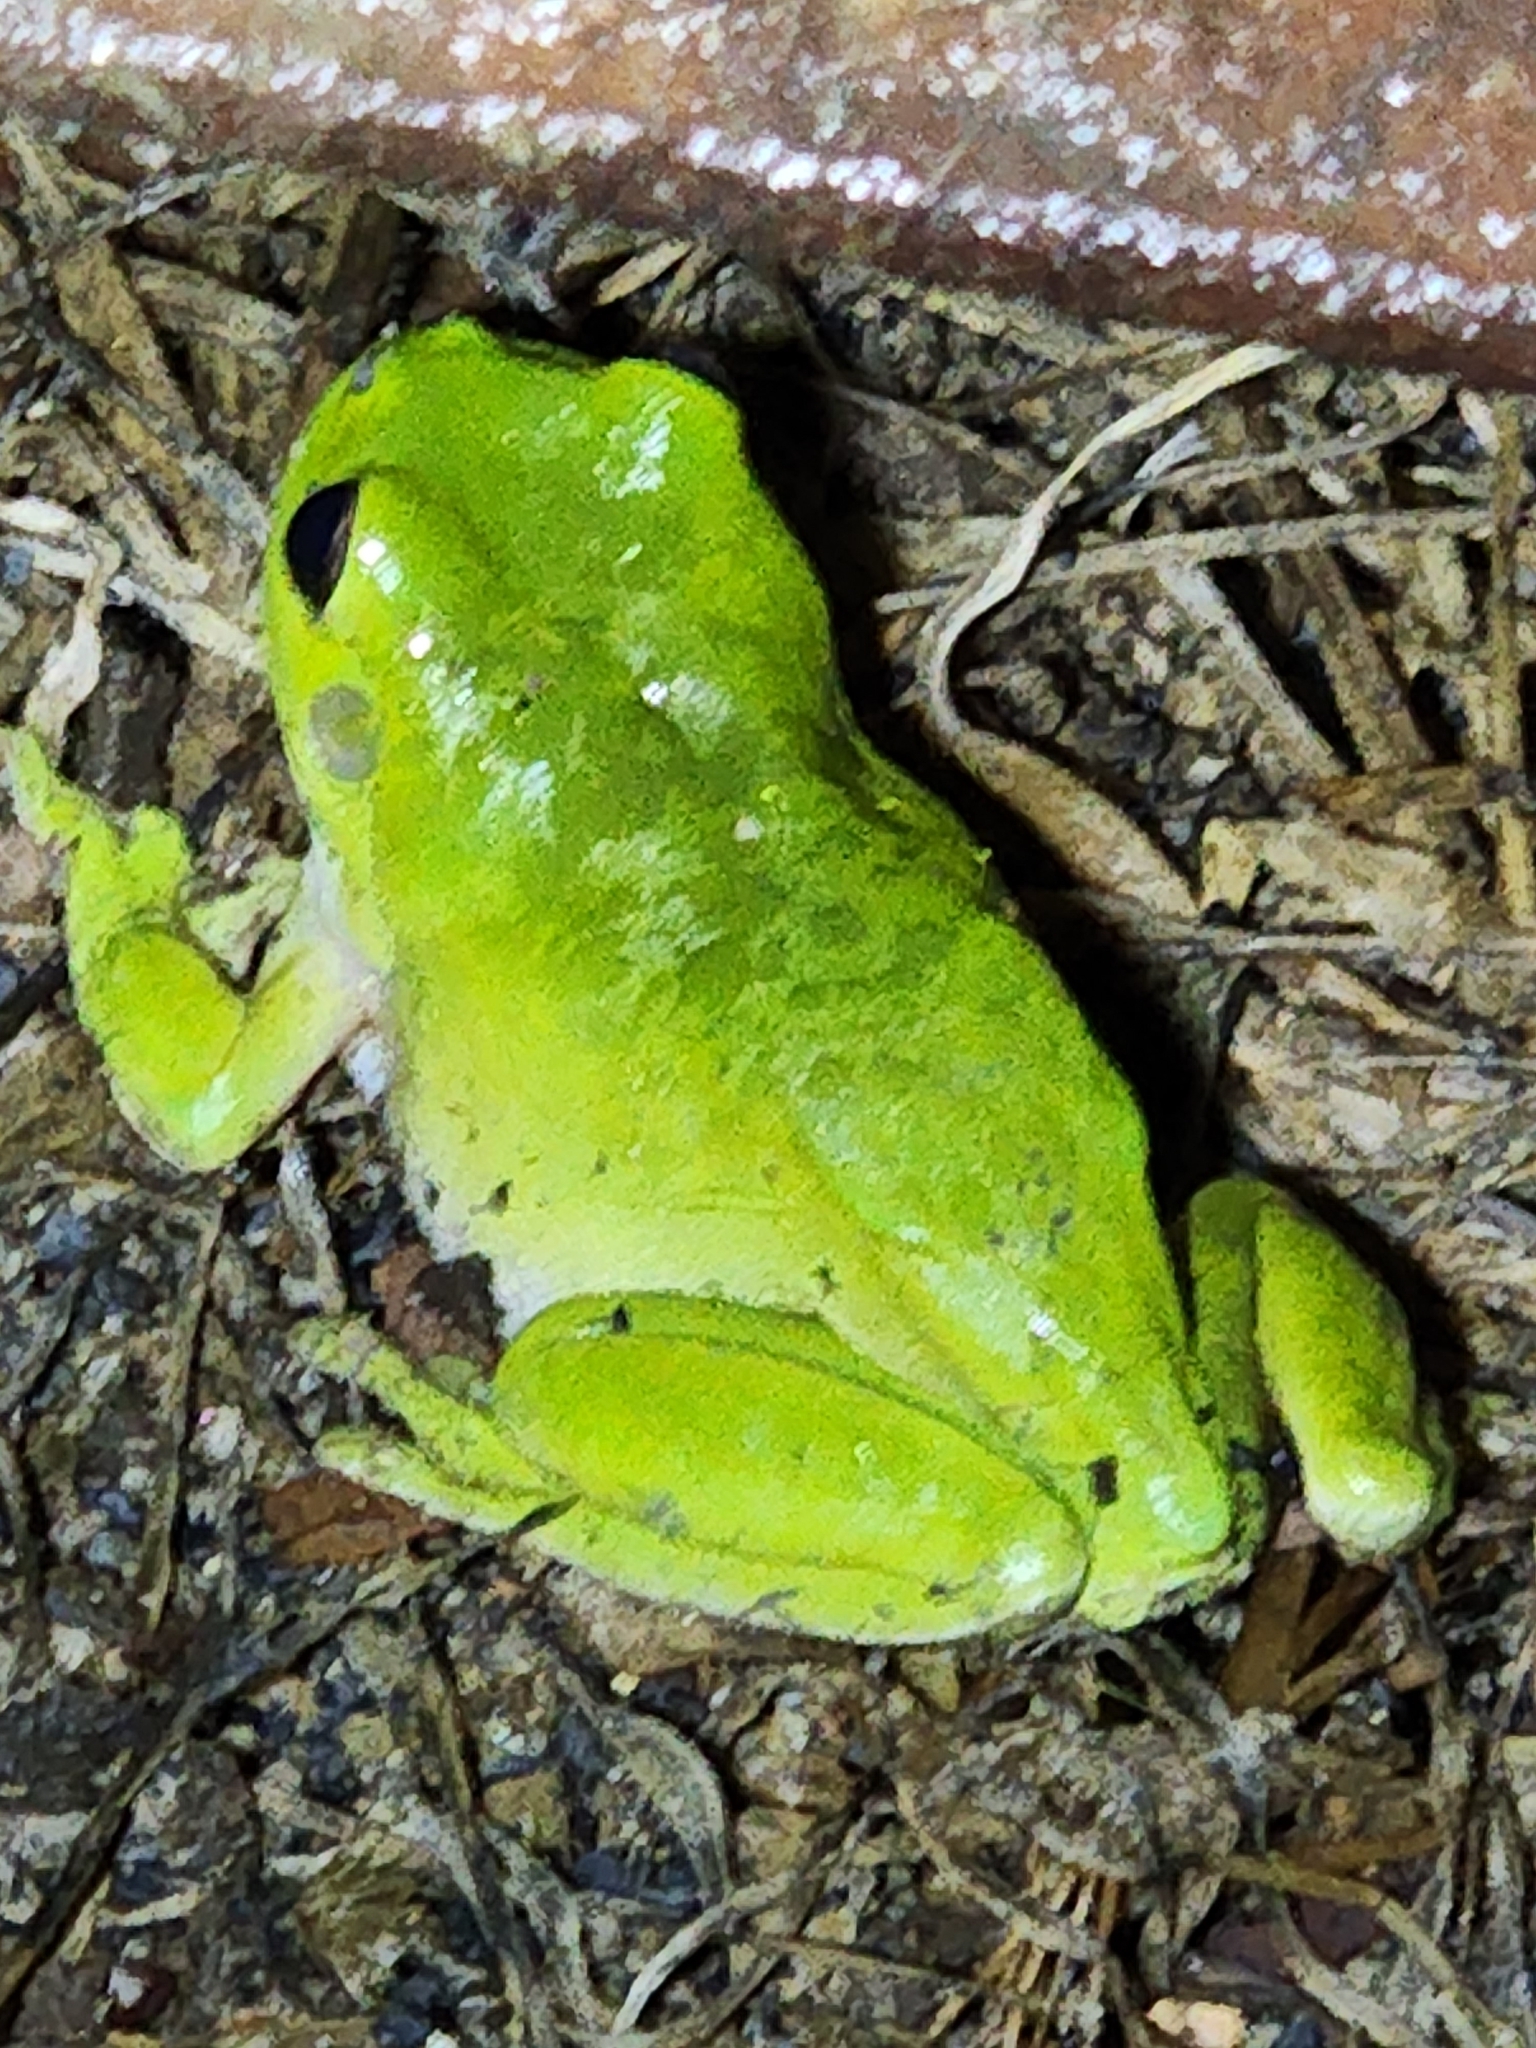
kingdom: Animalia
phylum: Chordata
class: Amphibia
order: Anura
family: Pelodryadidae
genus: Ranoidea
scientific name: Ranoidea caerulea
